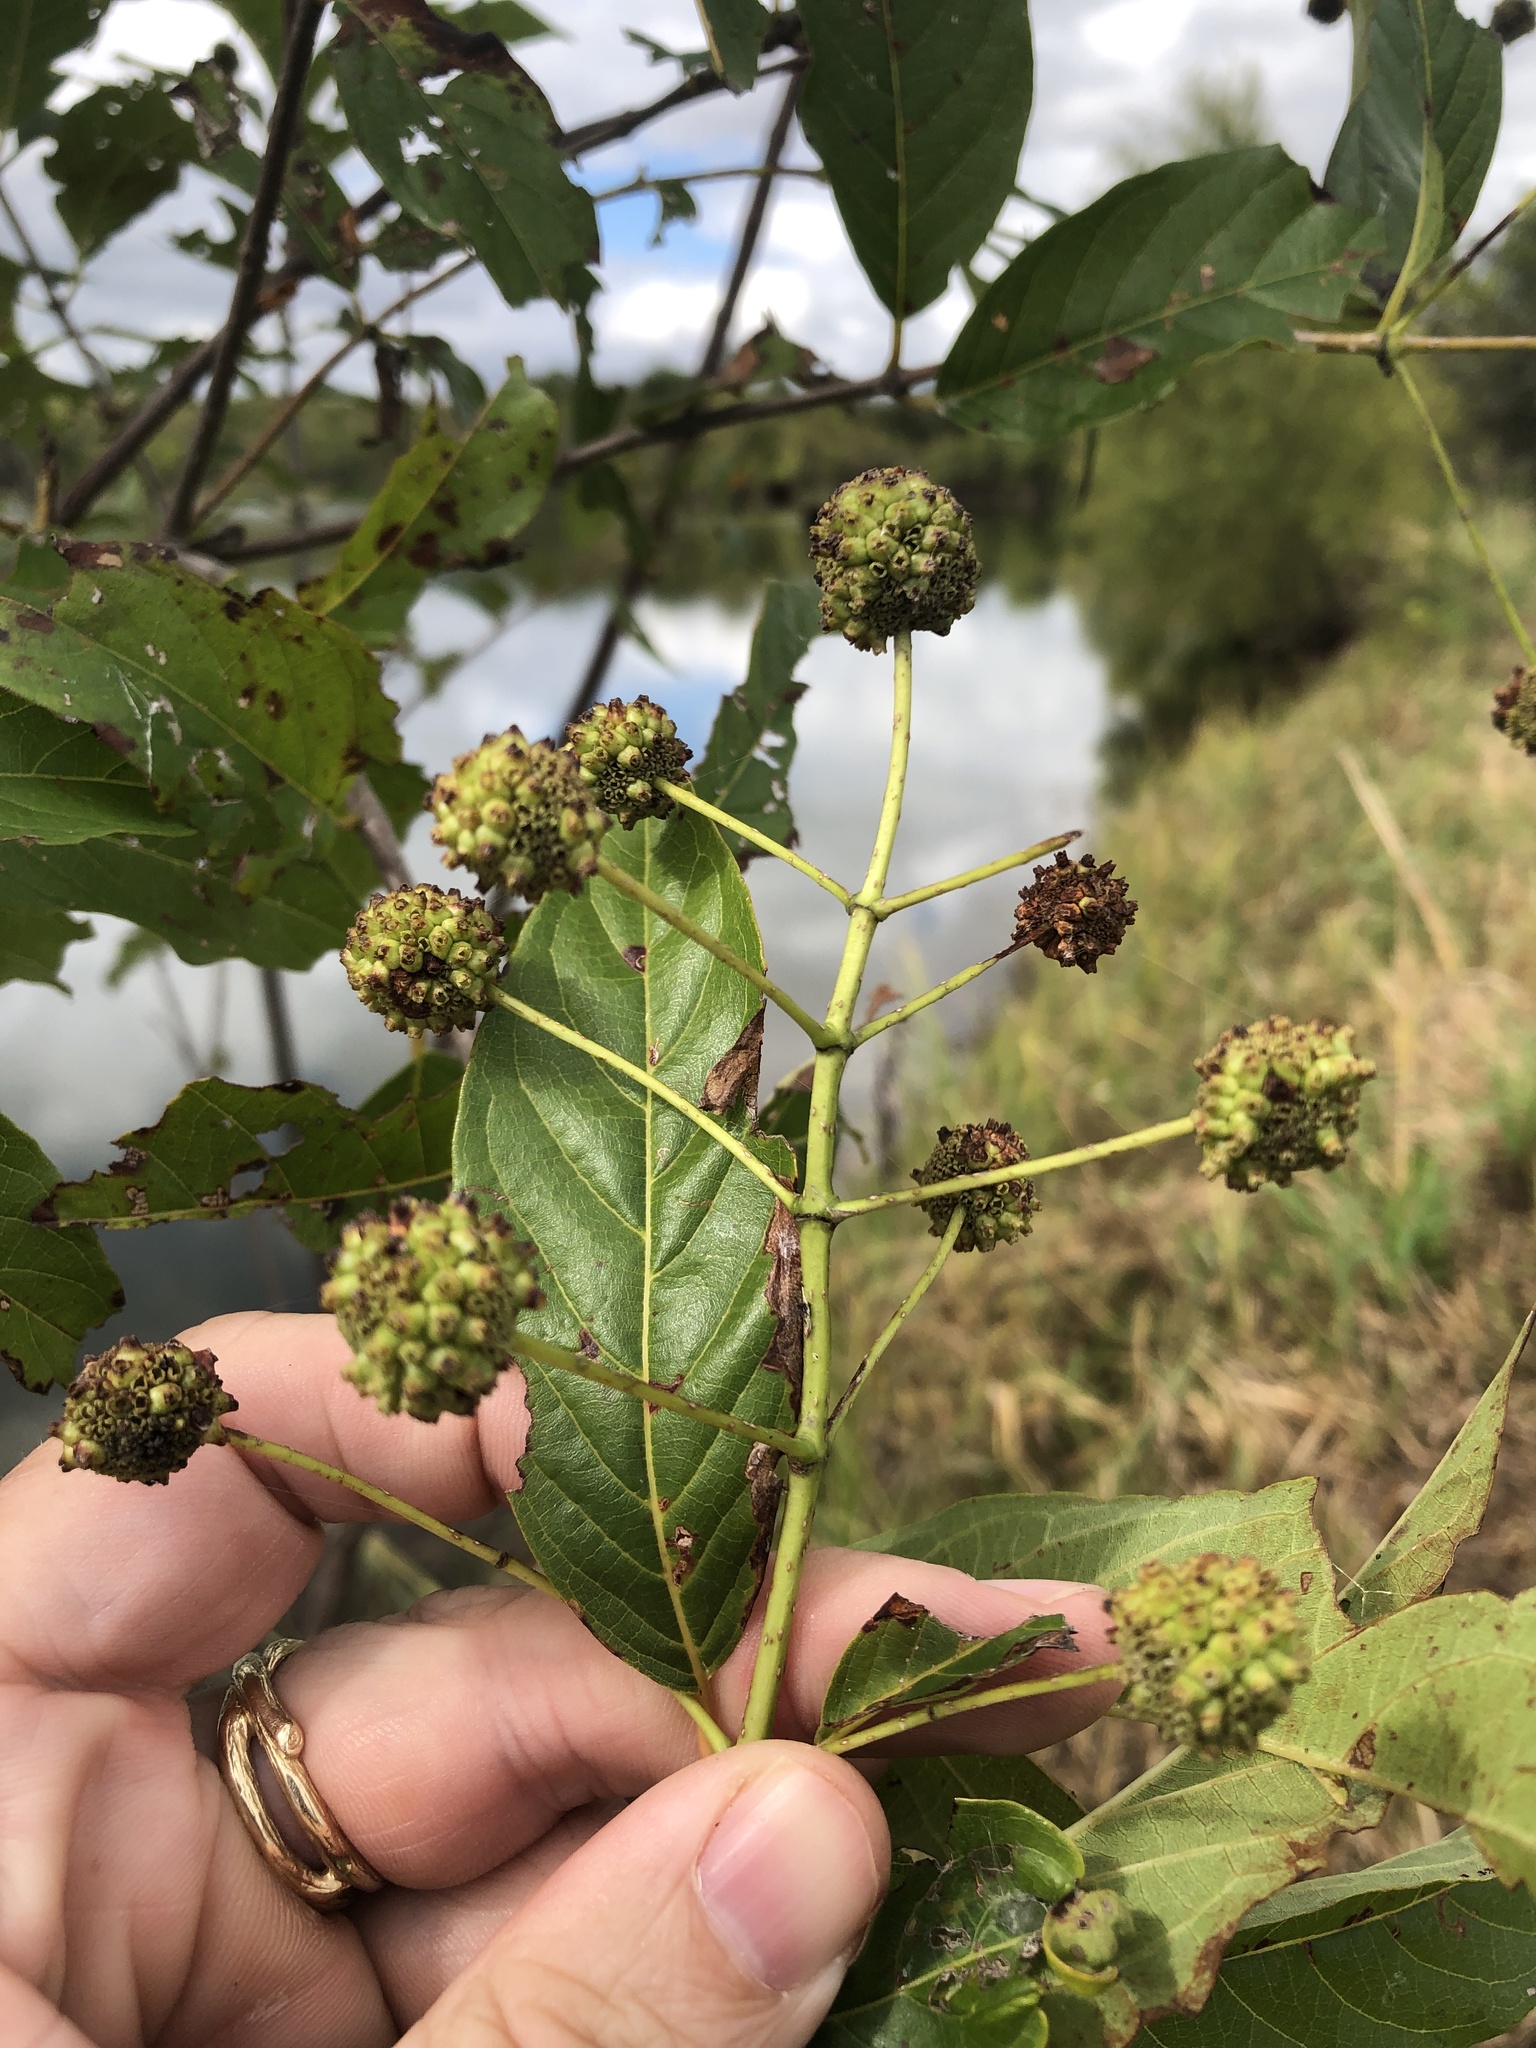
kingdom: Plantae
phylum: Tracheophyta
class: Magnoliopsida
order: Gentianales
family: Rubiaceae
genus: Cephalanthus
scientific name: Cephalanthus occidentalis
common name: Button-willow
